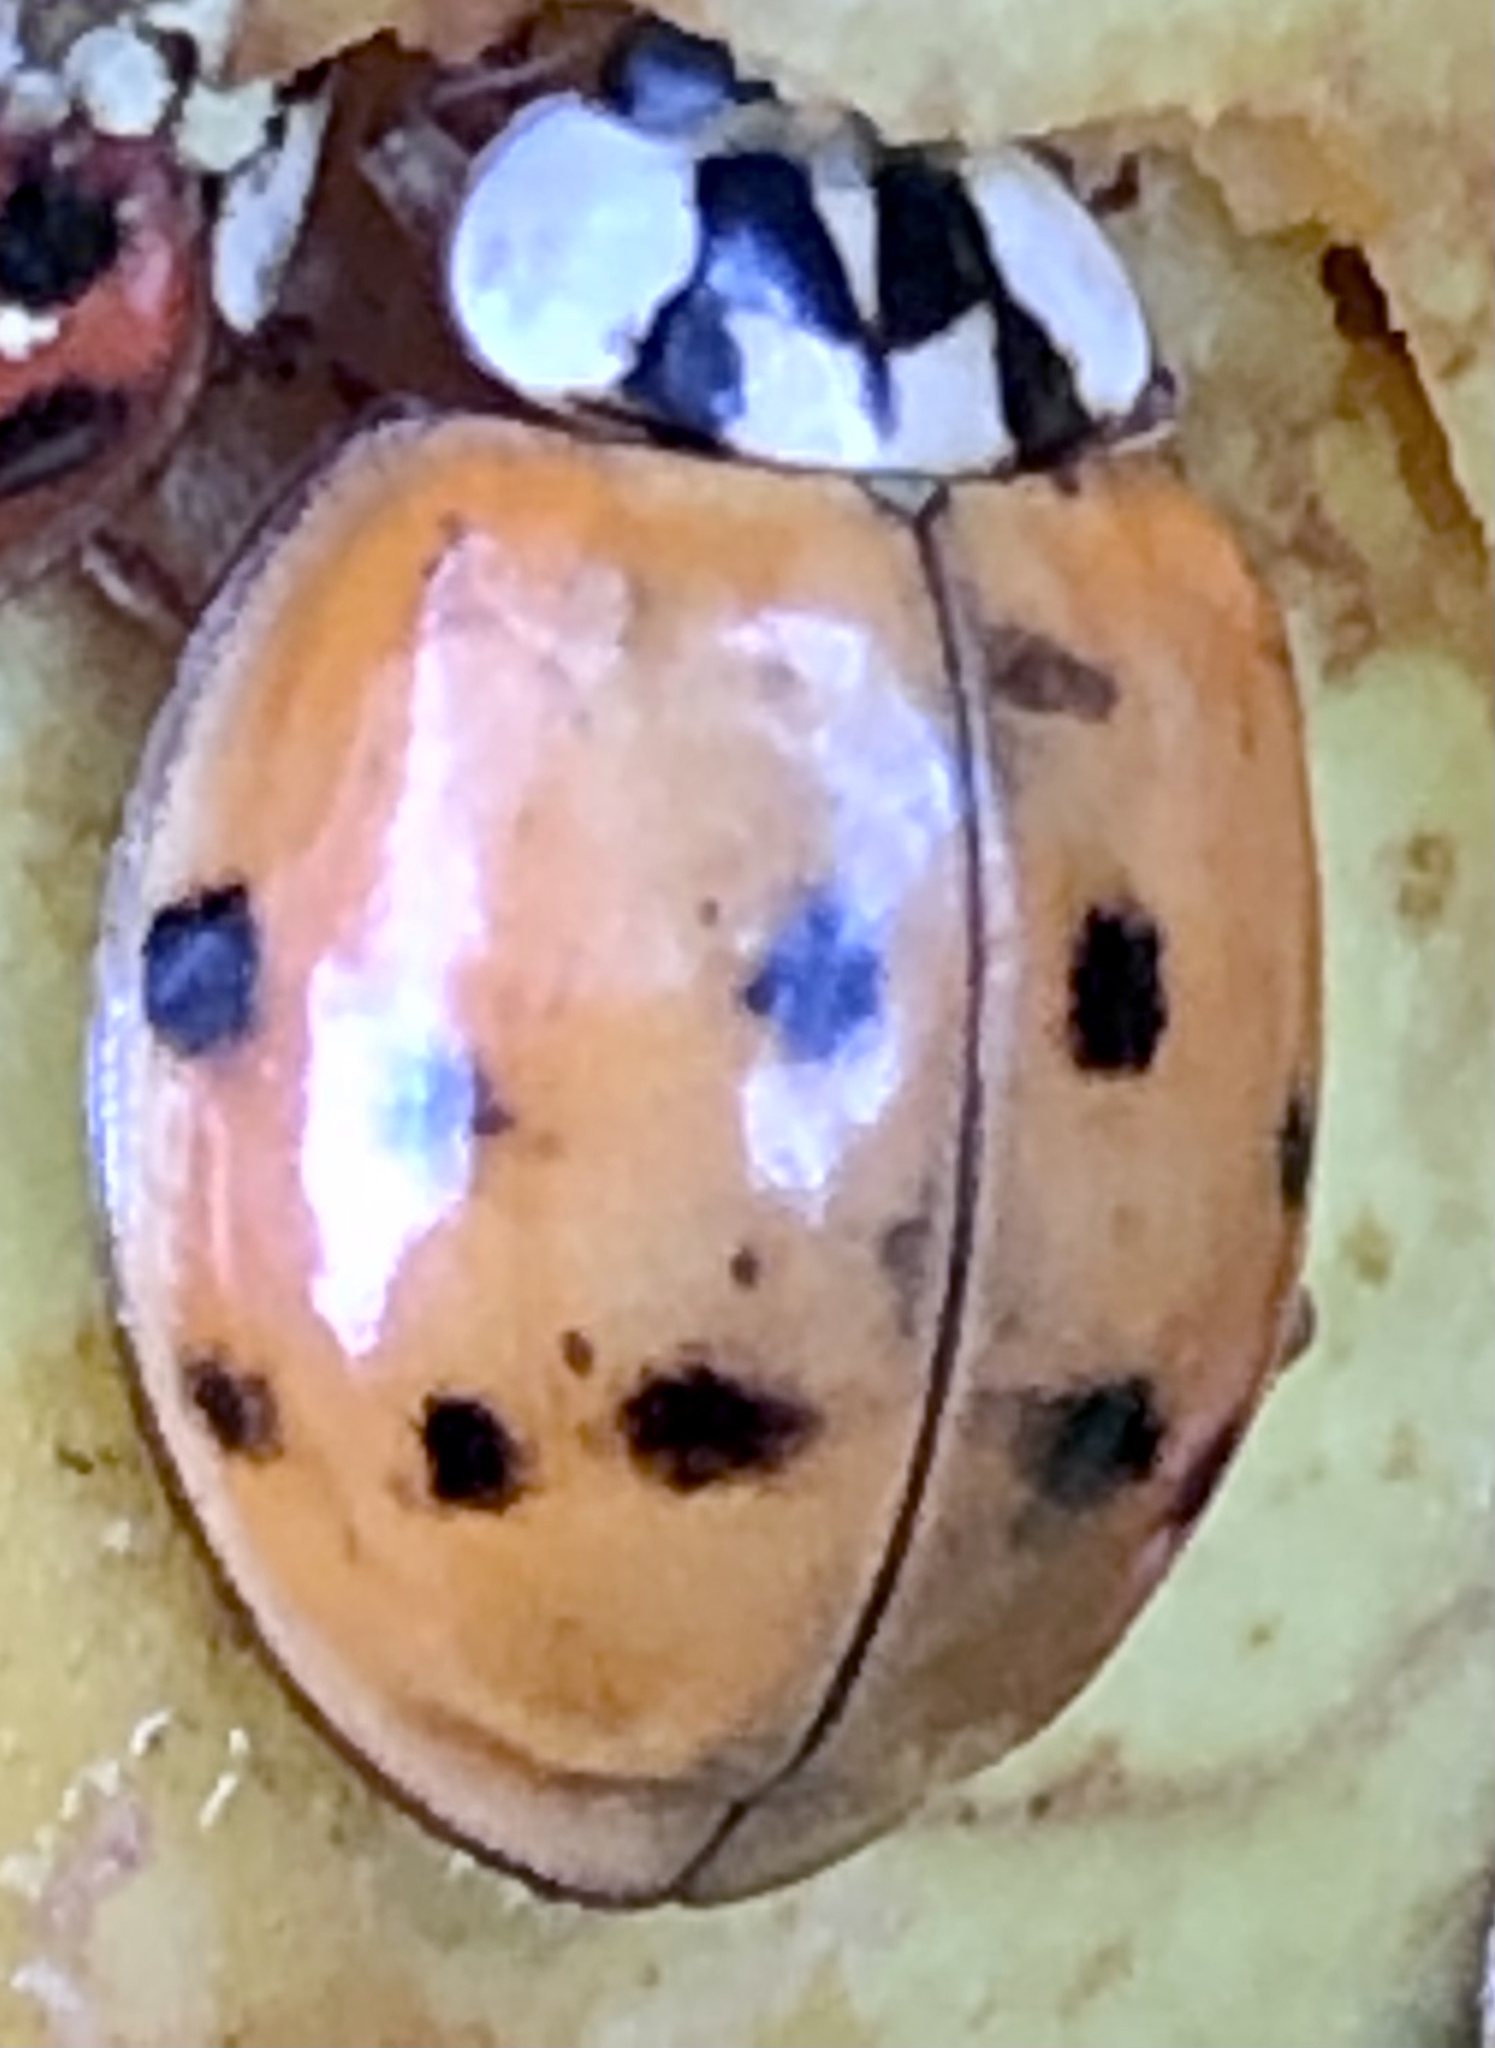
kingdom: Animalia
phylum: Arthropoda
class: Insecta
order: Coleoptera
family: Coccinellidae
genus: Harmonia
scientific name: Harmonia axyridis
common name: Harlequin ladybird
